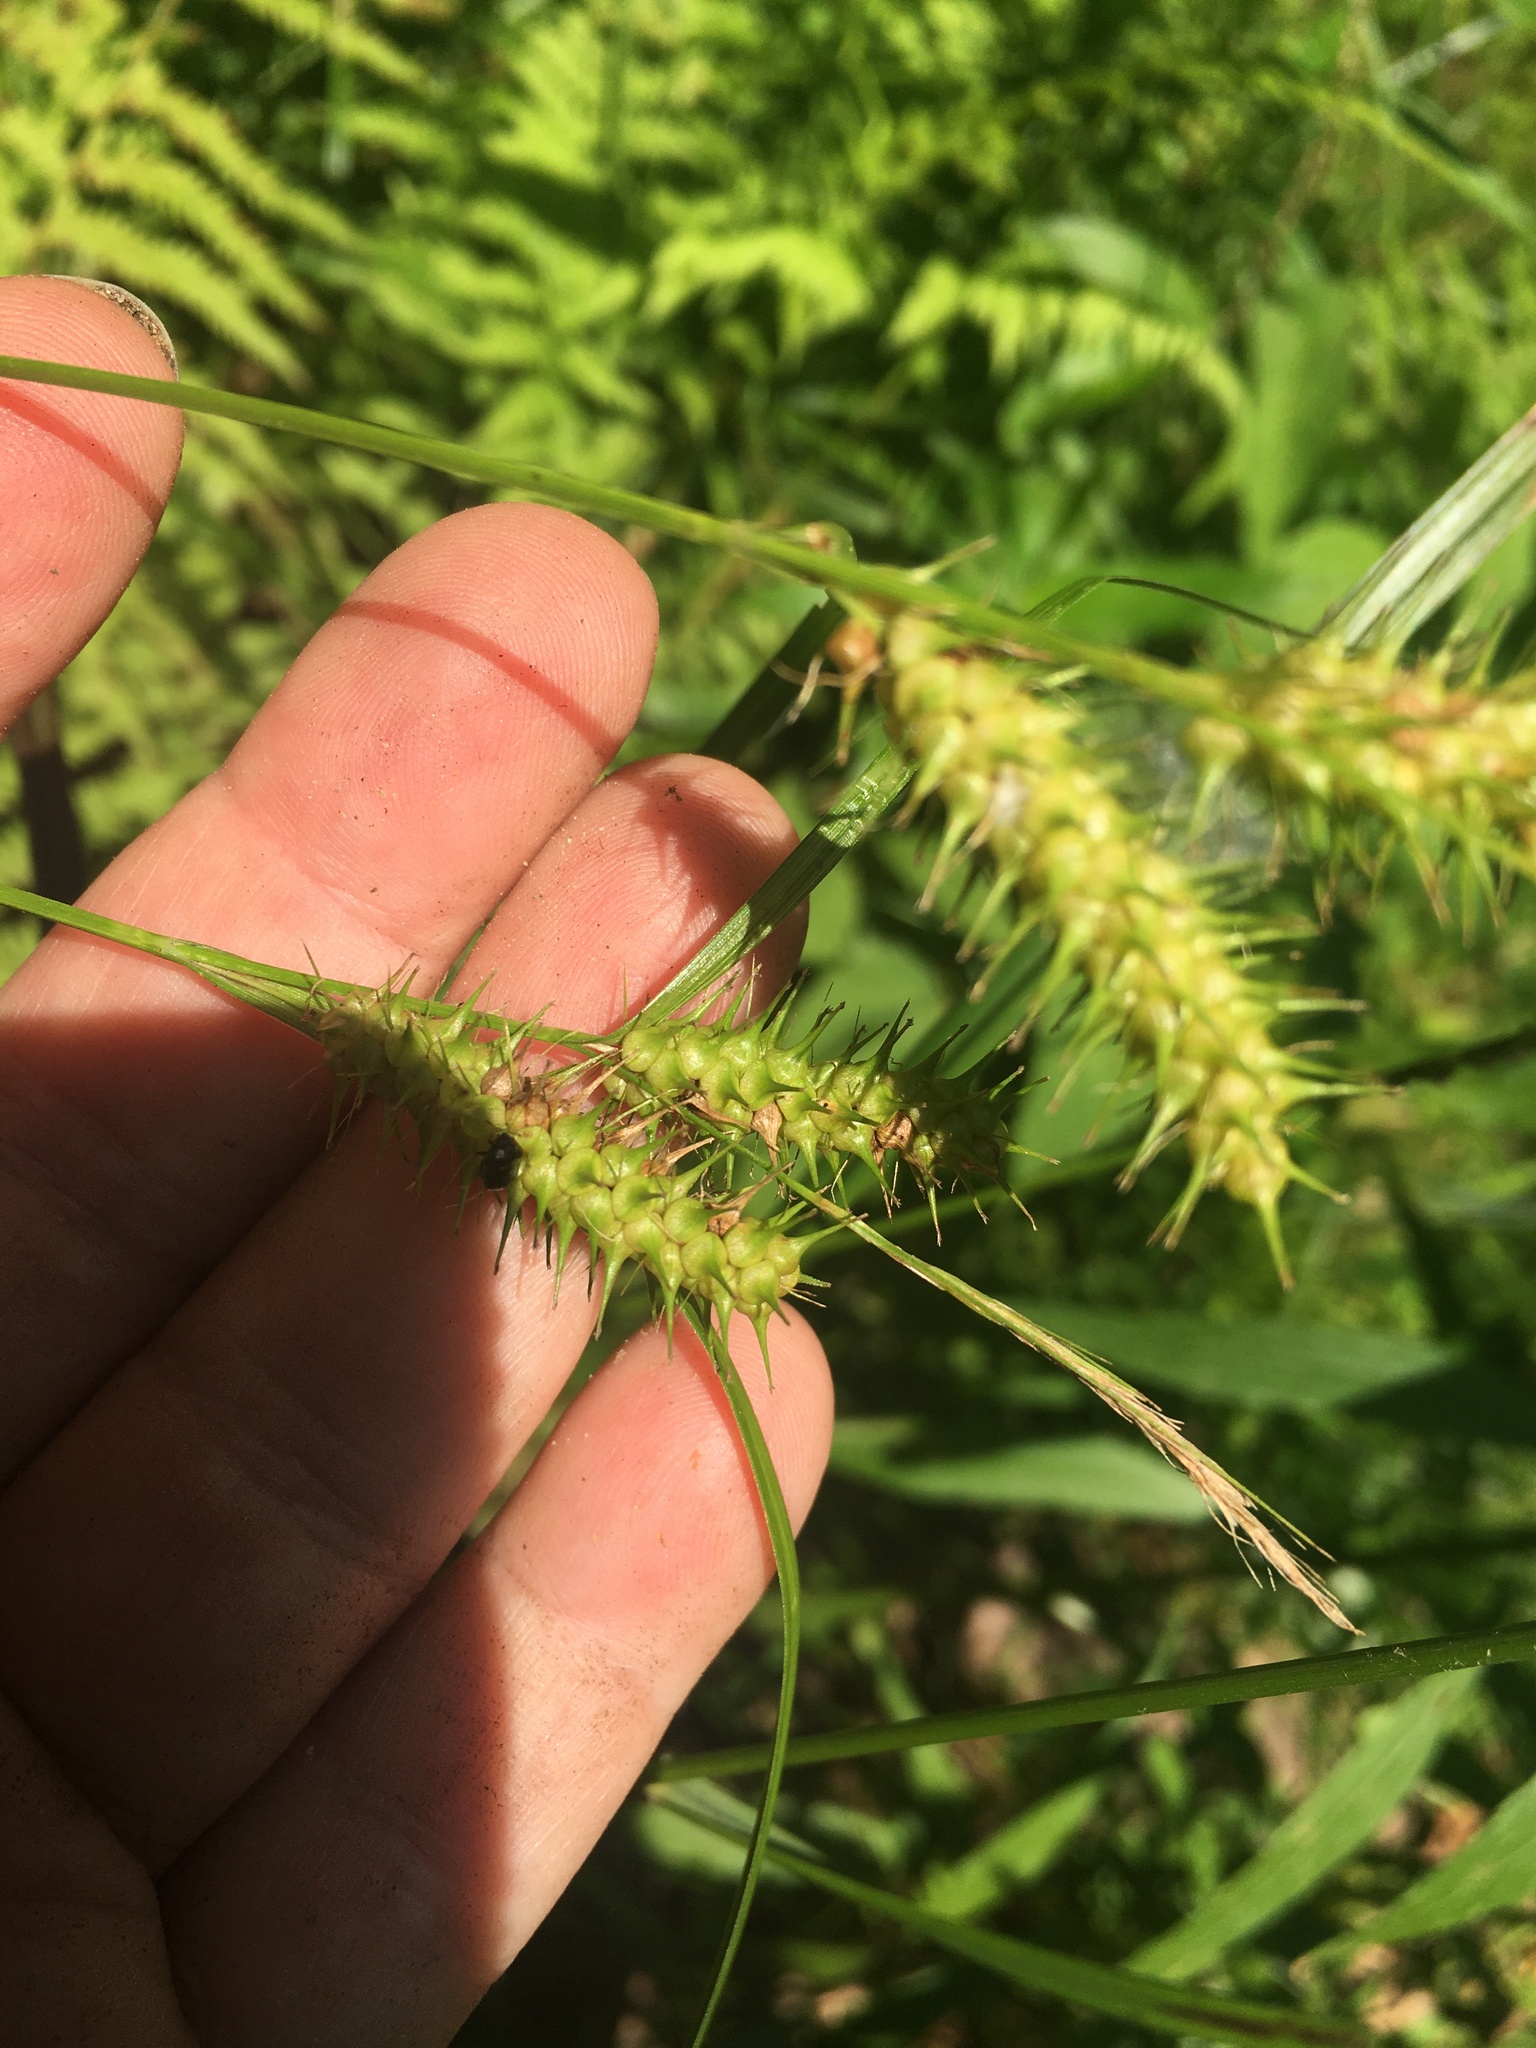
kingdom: Plantae
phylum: Tracheophyta
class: Liliopsida
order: Poales
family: Cyperaceae
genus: Carex
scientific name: Carex baileyi
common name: Bailey's sedge
